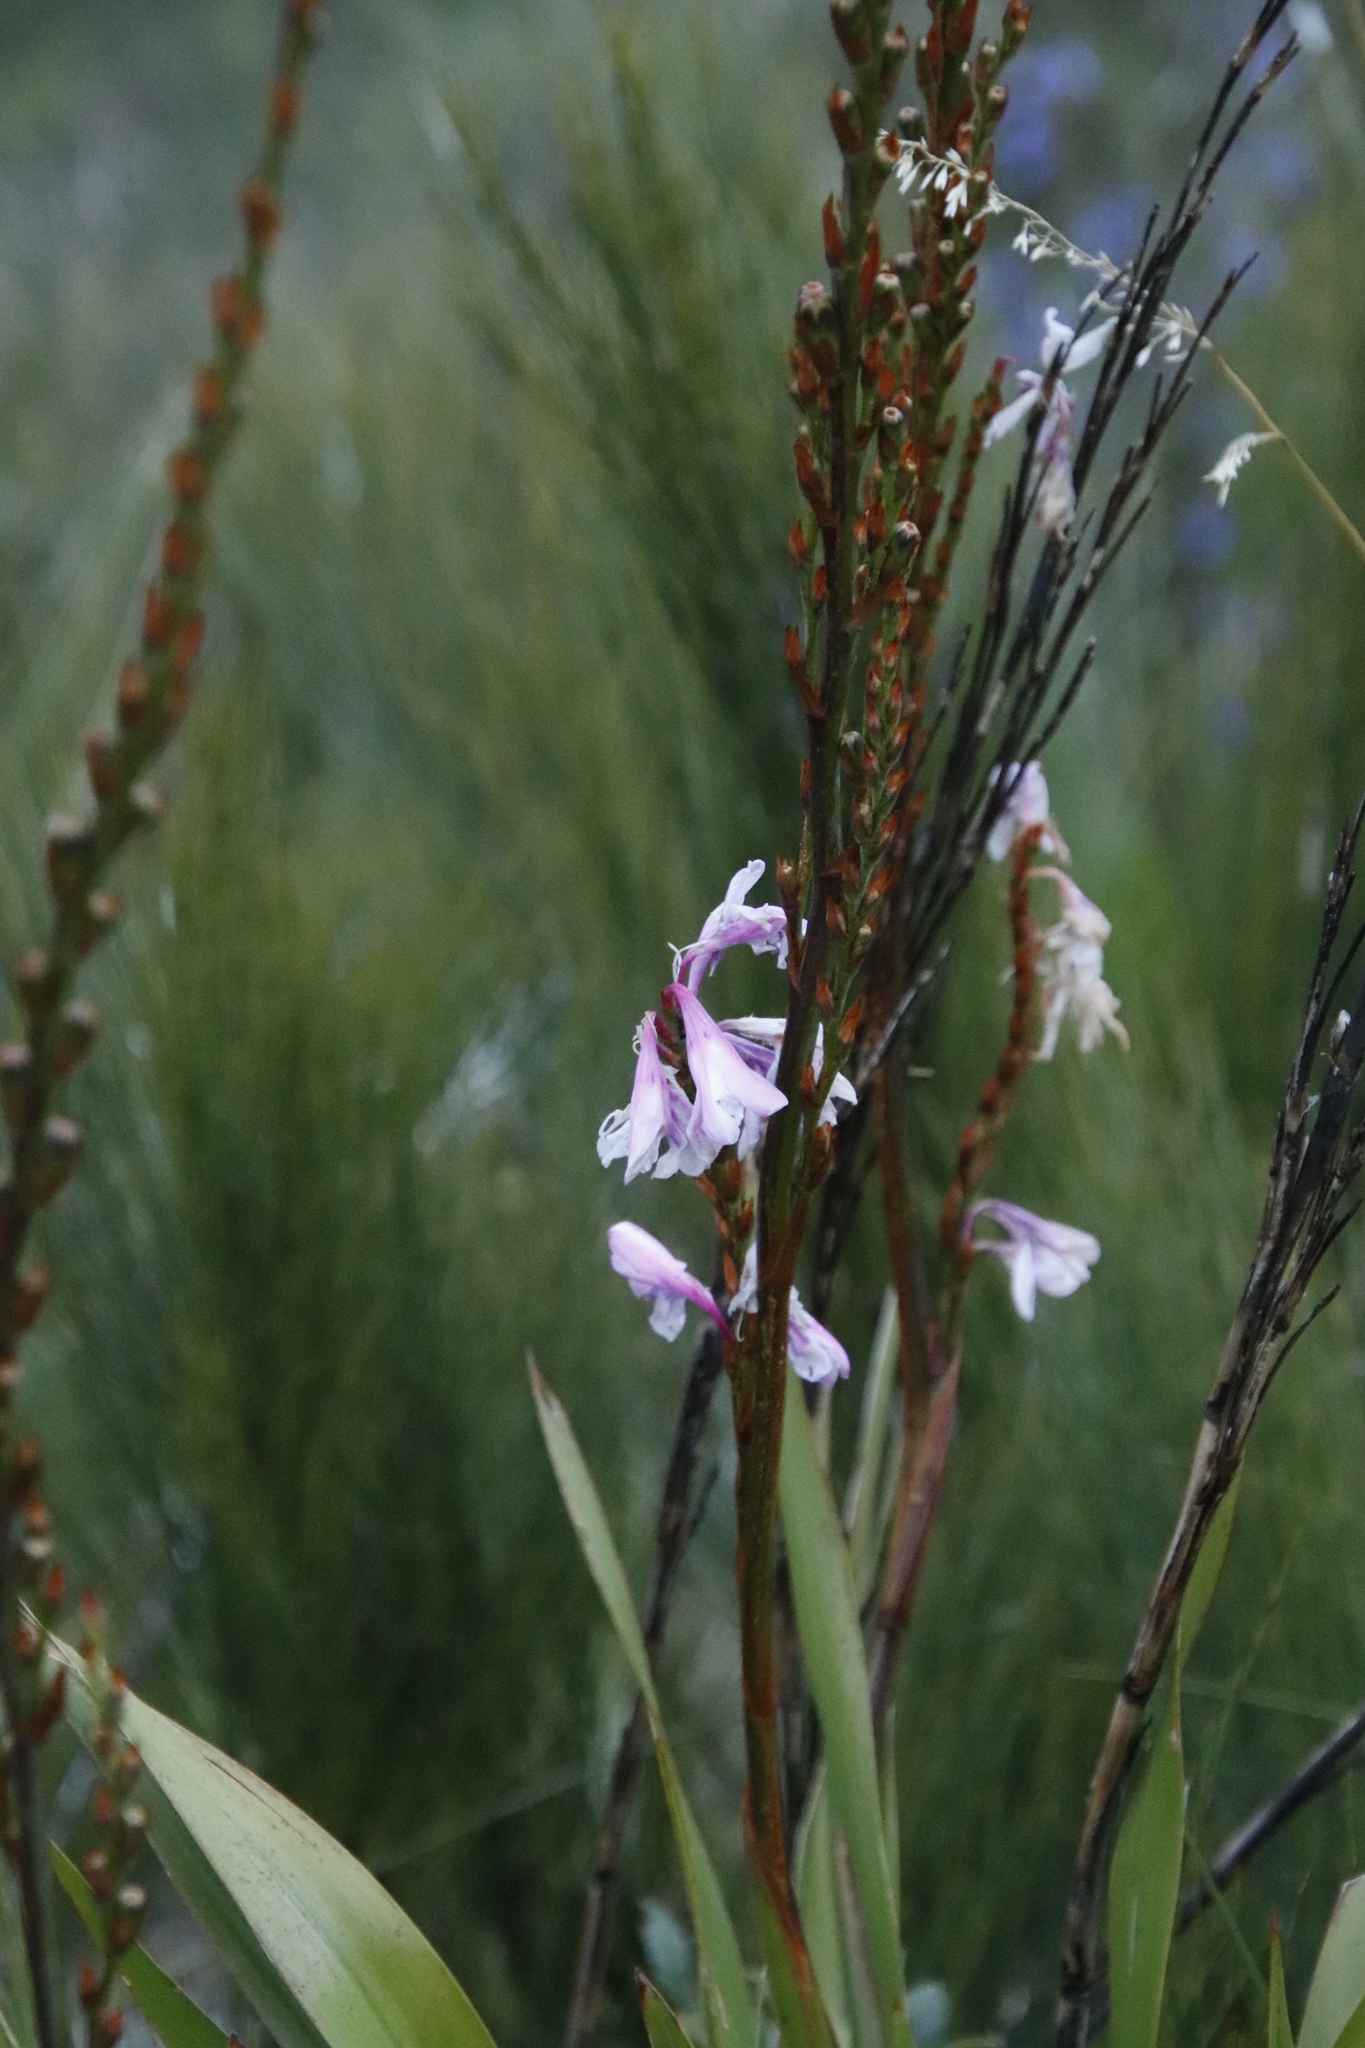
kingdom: Plantae
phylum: Tracheophyta
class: Liliopsida
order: Asparagales
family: Iridaceae
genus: Watsonia
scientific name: Watsonia borbonica
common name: Bugle-lily
